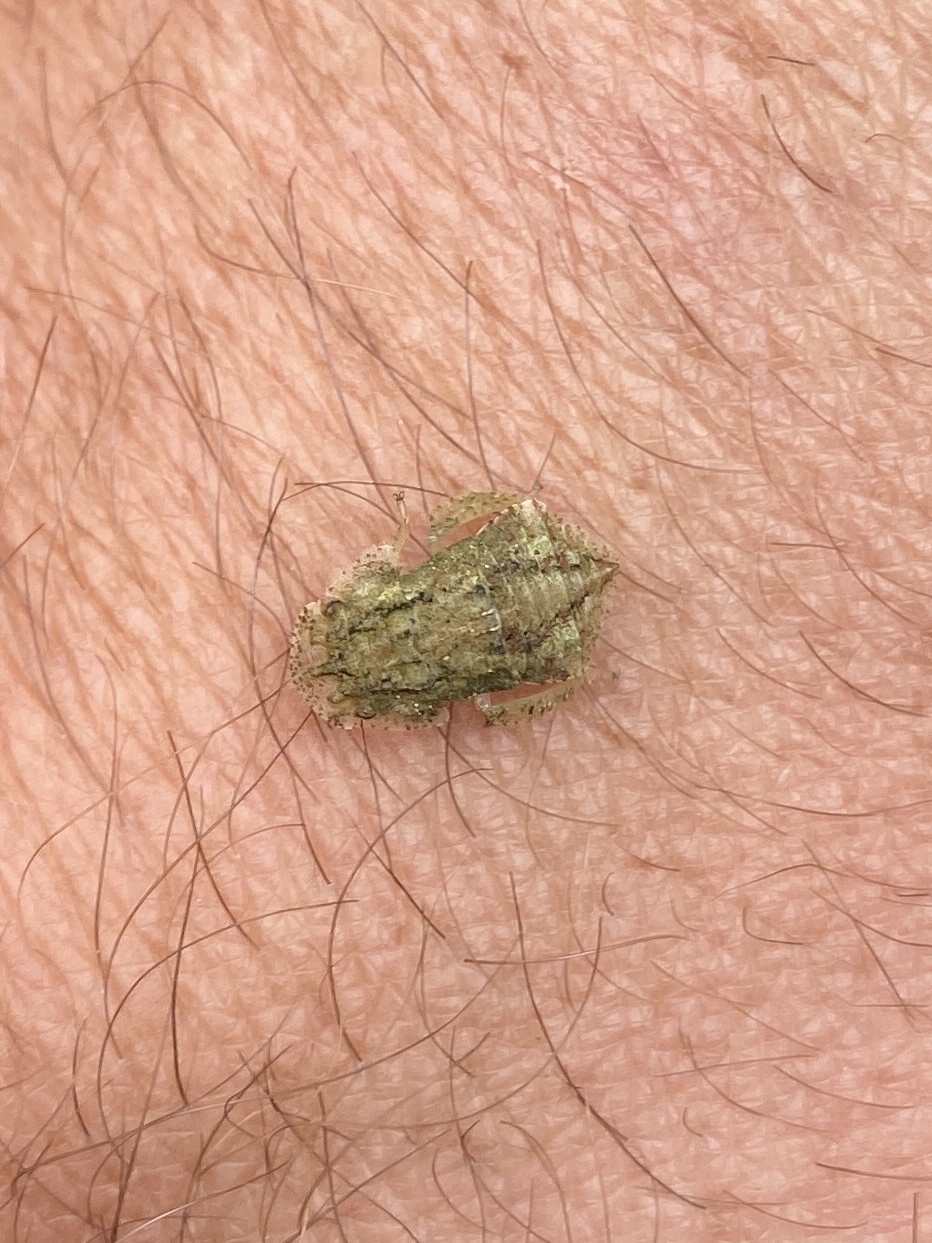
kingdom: Animalia
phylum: Arthropoda
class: Insecta
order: Hemiptera
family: Cicadellidae
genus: Ledra
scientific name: Ledra aurita
